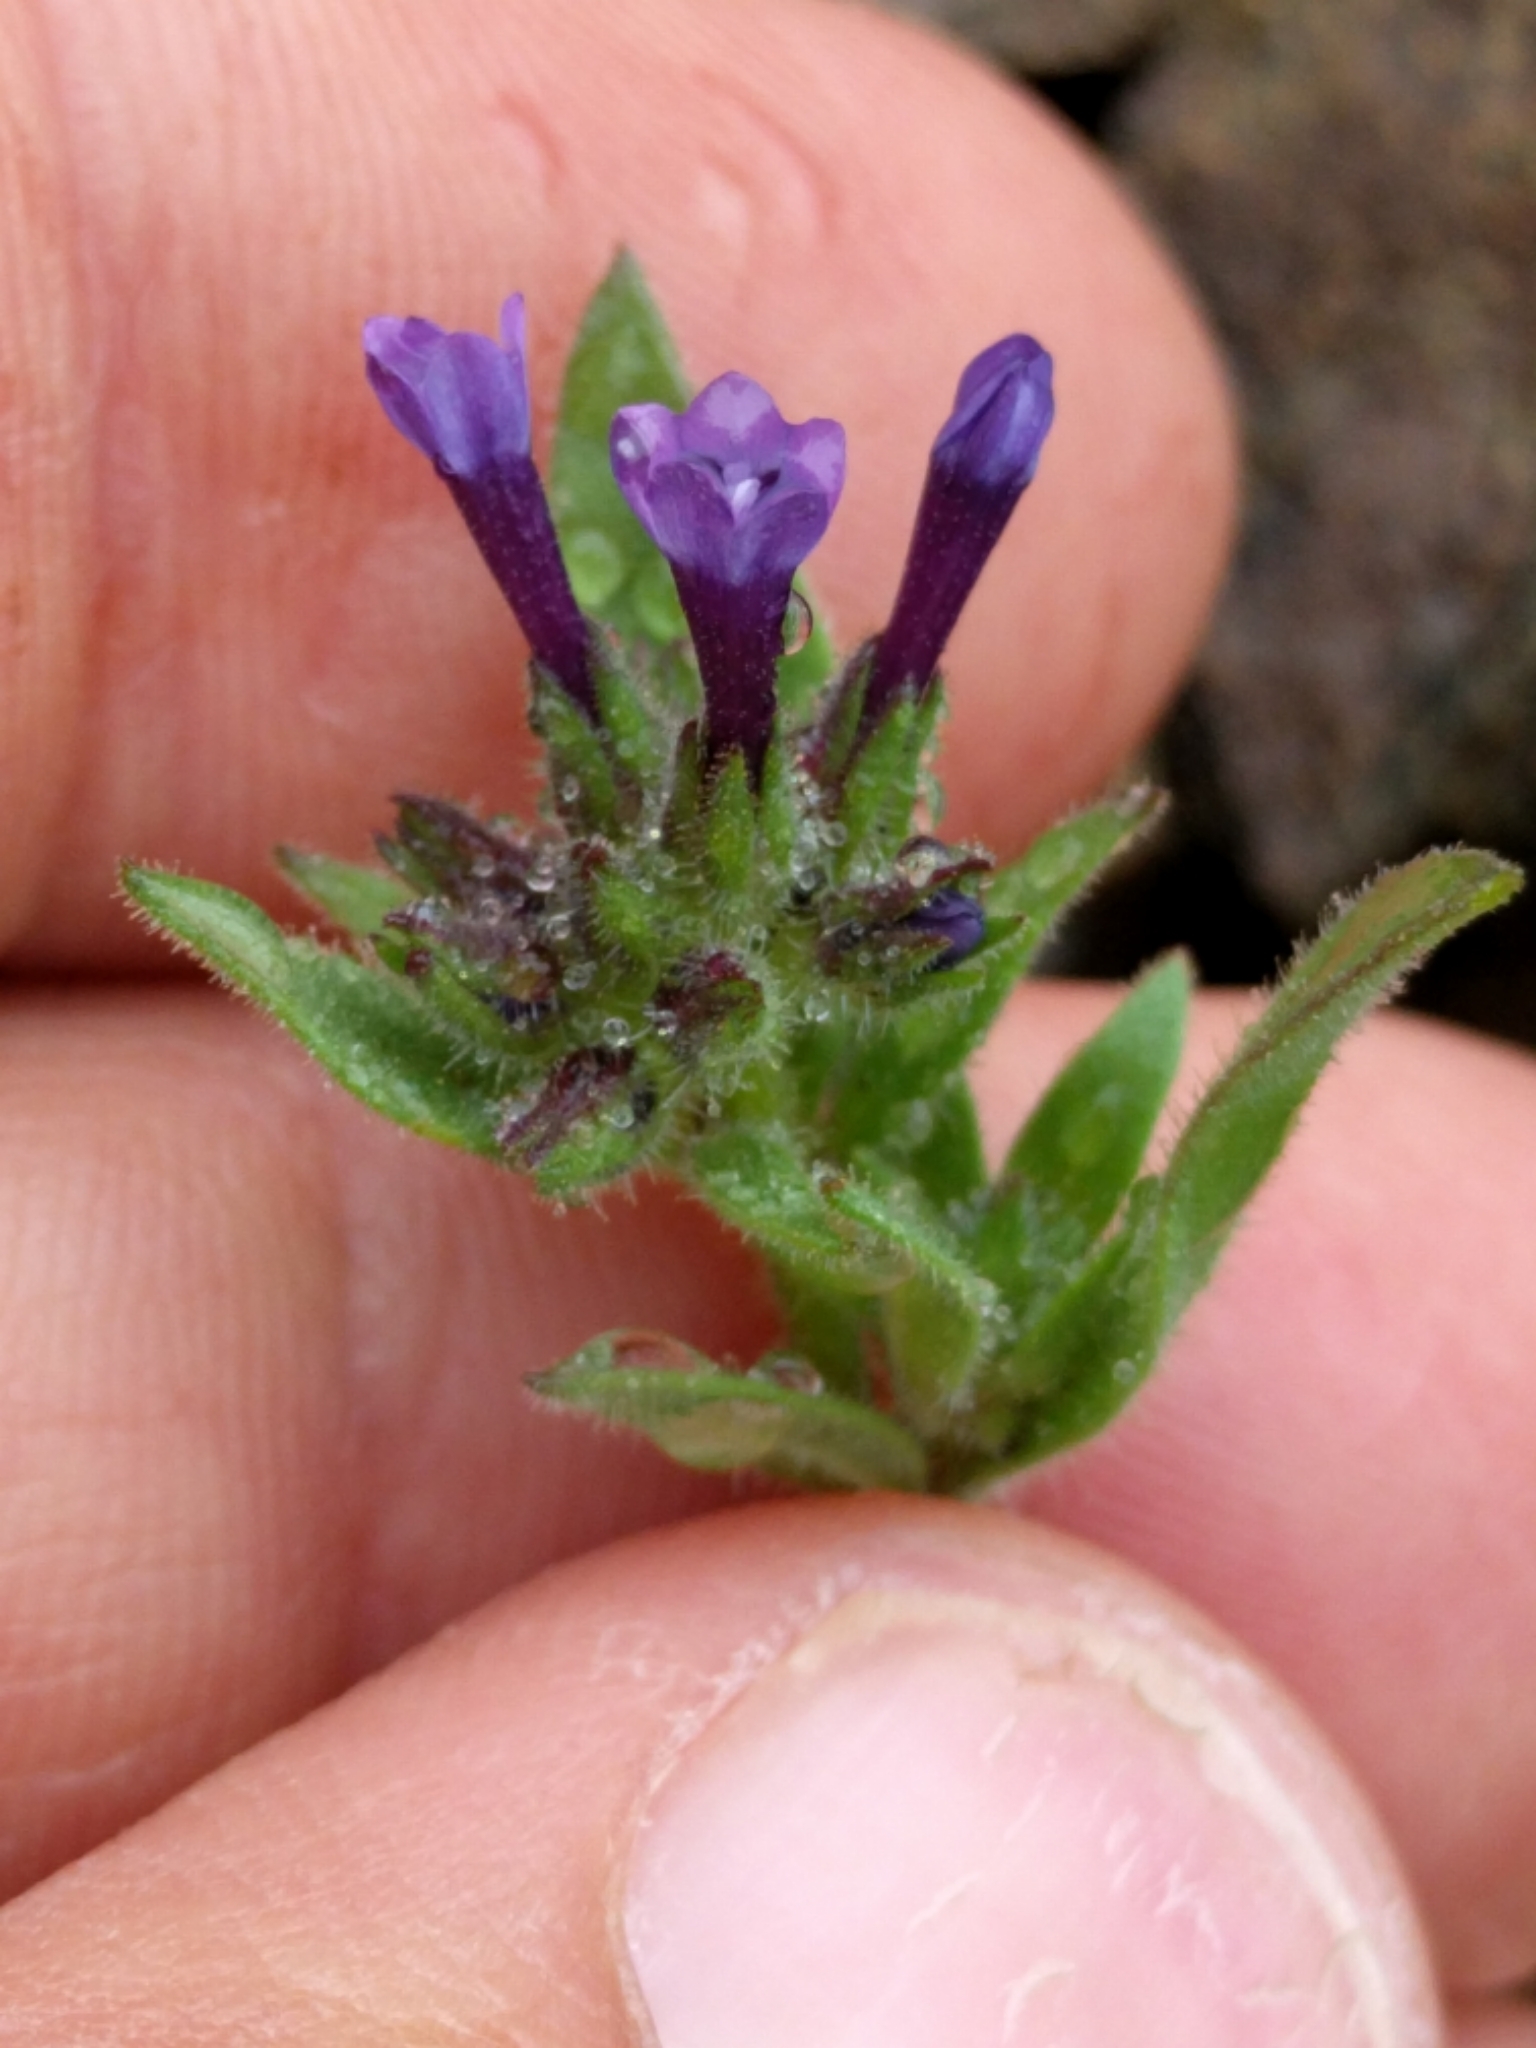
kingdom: Plantae
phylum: Tracheophyta
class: Magnoliopsida
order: Ericales
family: Polemoniaceae
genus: Allophyllum
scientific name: Allophyllum gilioides
